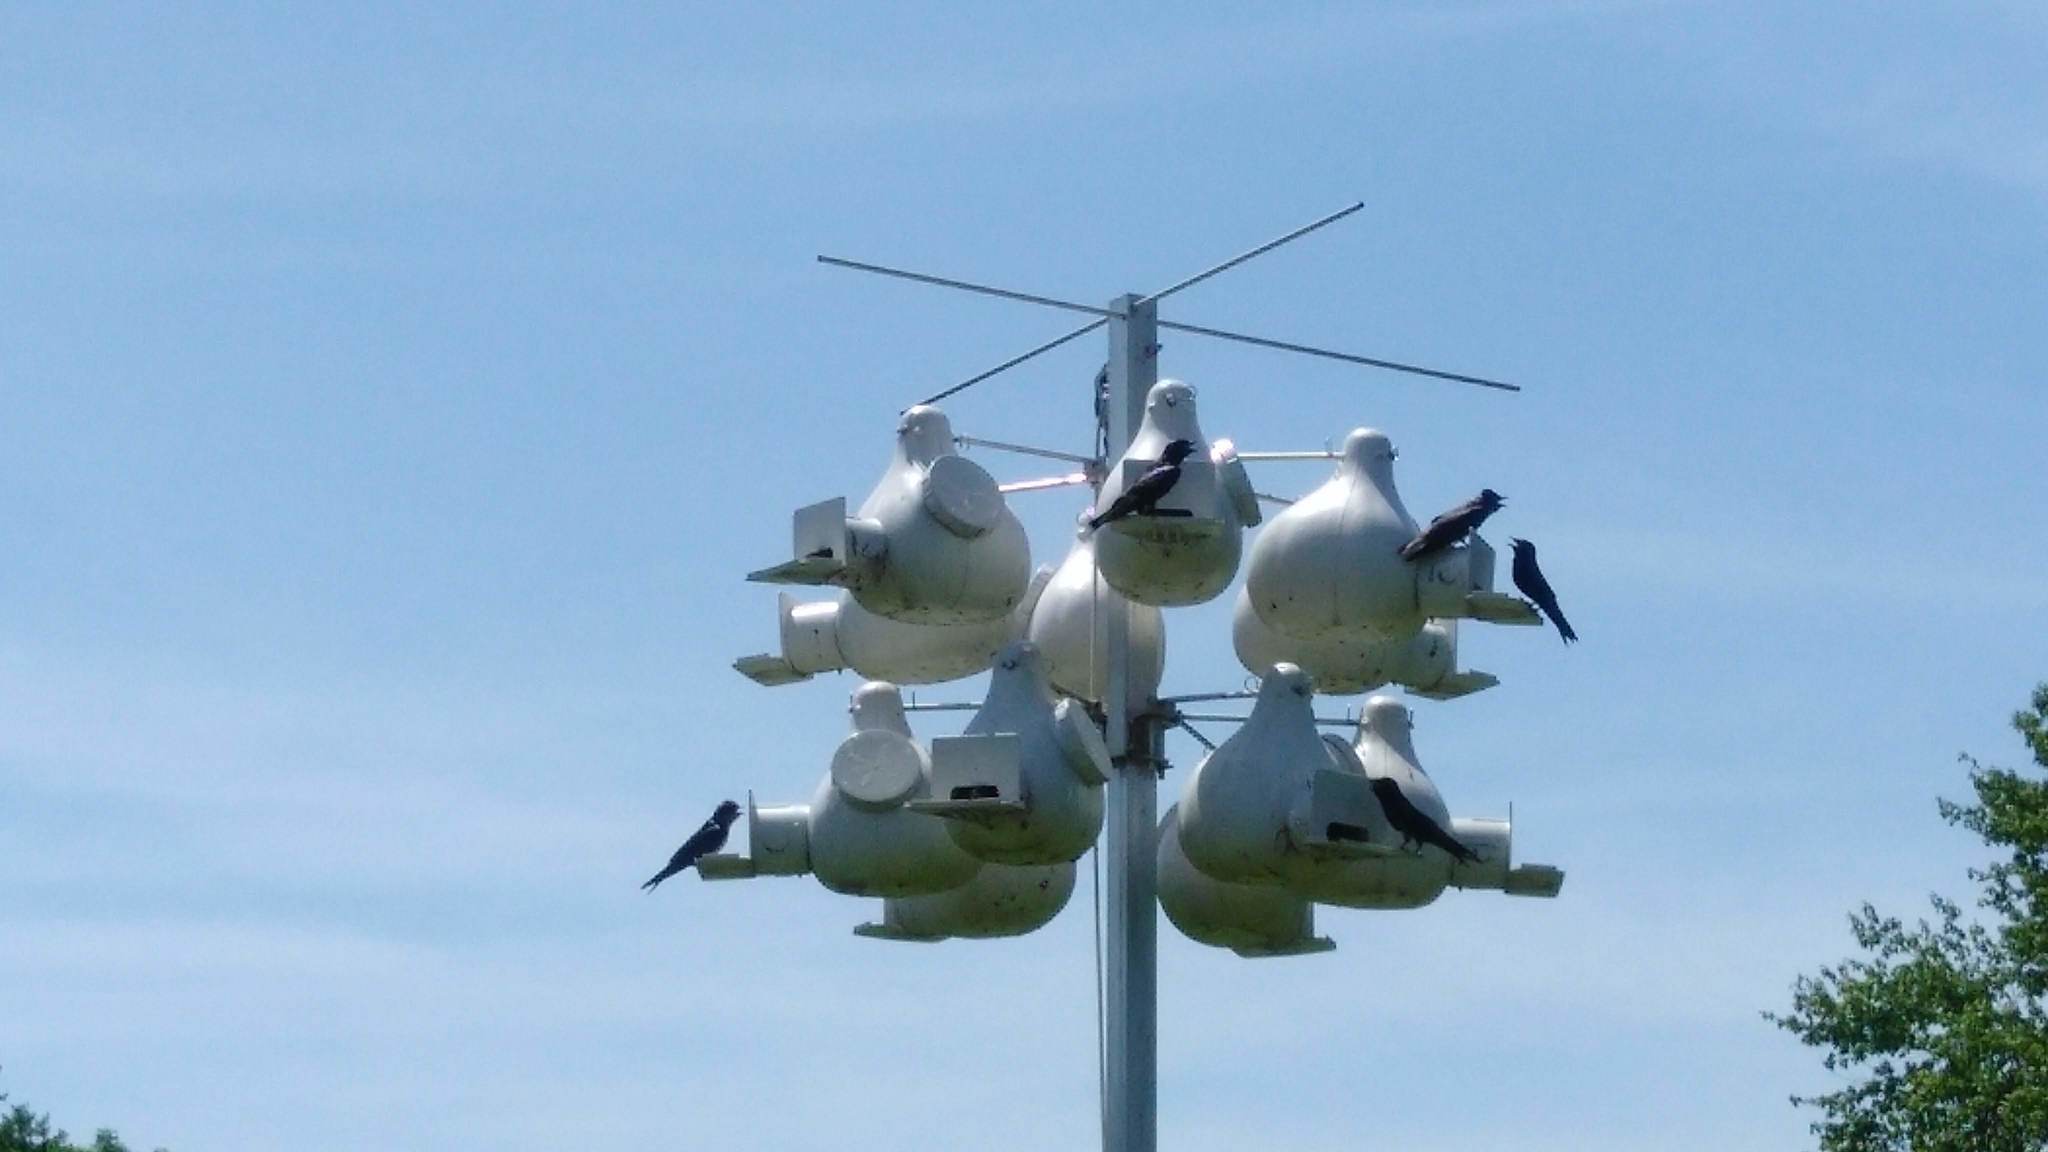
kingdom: Animalia
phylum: Chordata
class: Aves
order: Passeriformes
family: Hirundinidae
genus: Progne
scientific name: Progne subis
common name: Purple martin
